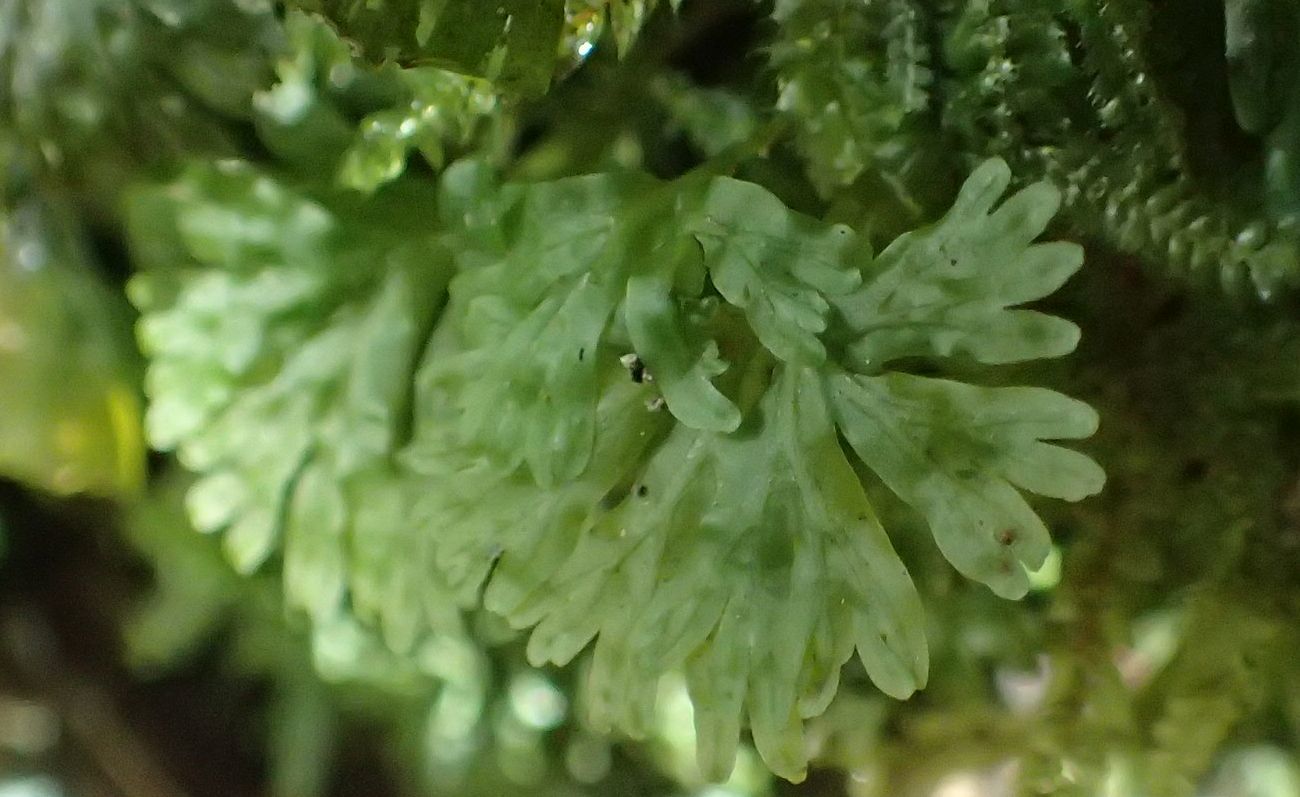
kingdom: Plantae
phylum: Marchantiophyta
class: Jungermanniopsida
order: Pallaviciniales
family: Hymenophytaceae
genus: Hymenophyton
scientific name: Hymenophyton flabellatum
